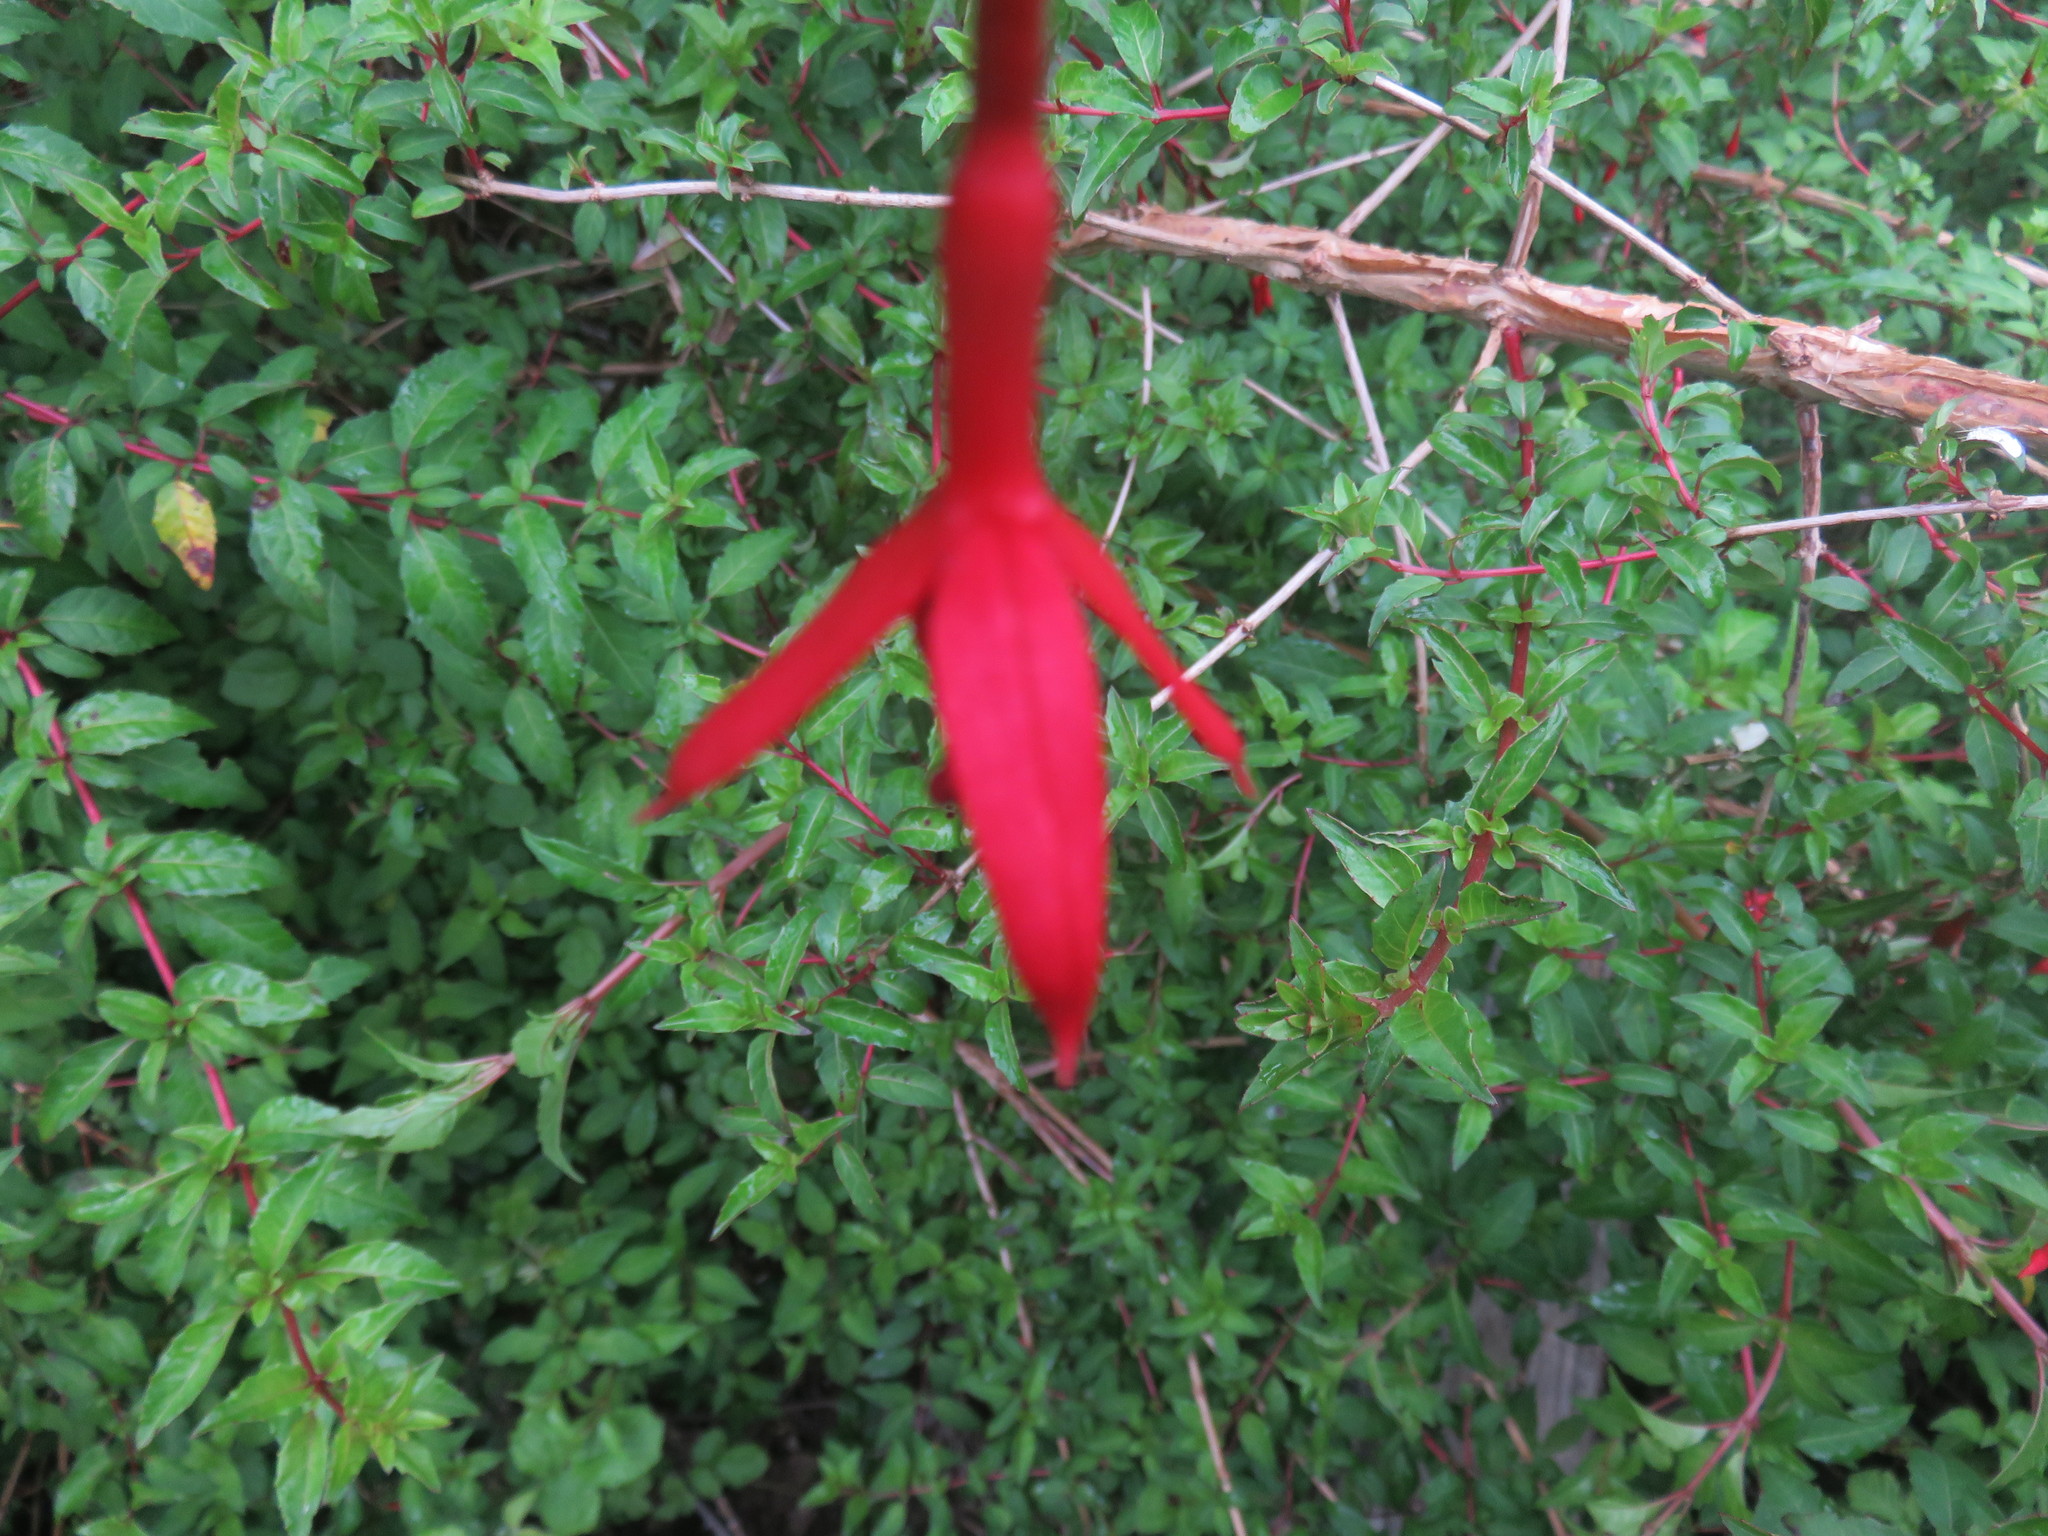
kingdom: Plantae
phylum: Tracheophyta
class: Magnoliopsida
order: Myrtales
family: Onagraceae
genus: Fuchsia
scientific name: Fuchsia magellanica
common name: Hardy fuchsia
